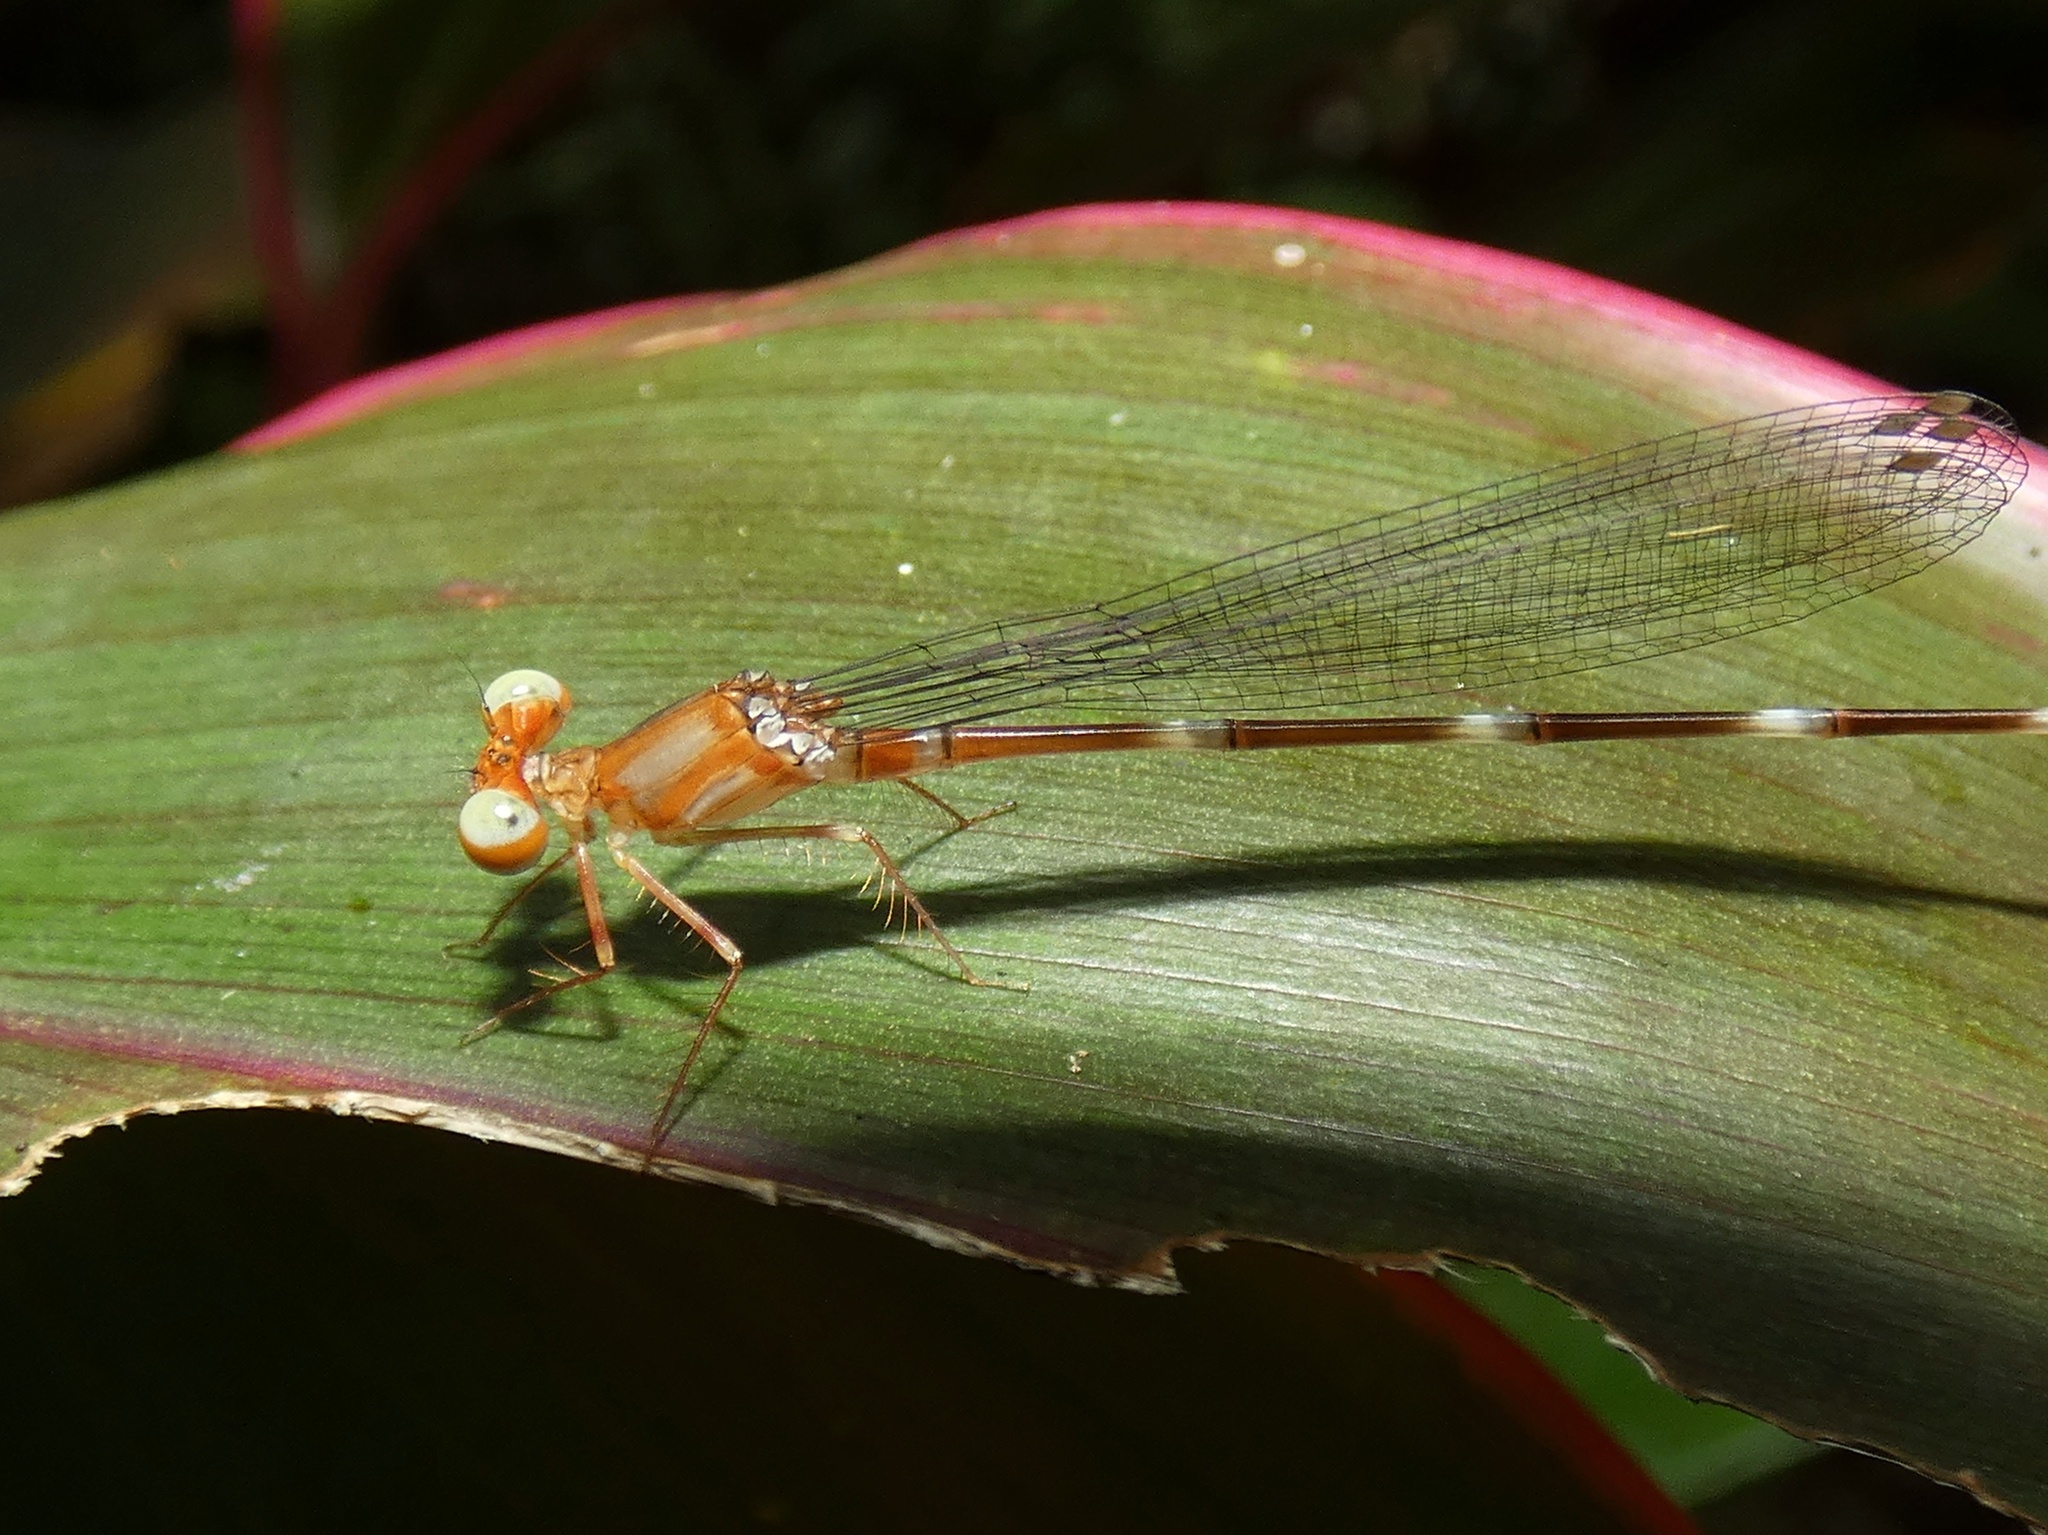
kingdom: Animalia
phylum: Arthropoda
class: Insecta
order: Odonata
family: Platycnemididae
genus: Igneocnemis
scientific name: Igneocnemis siniae
